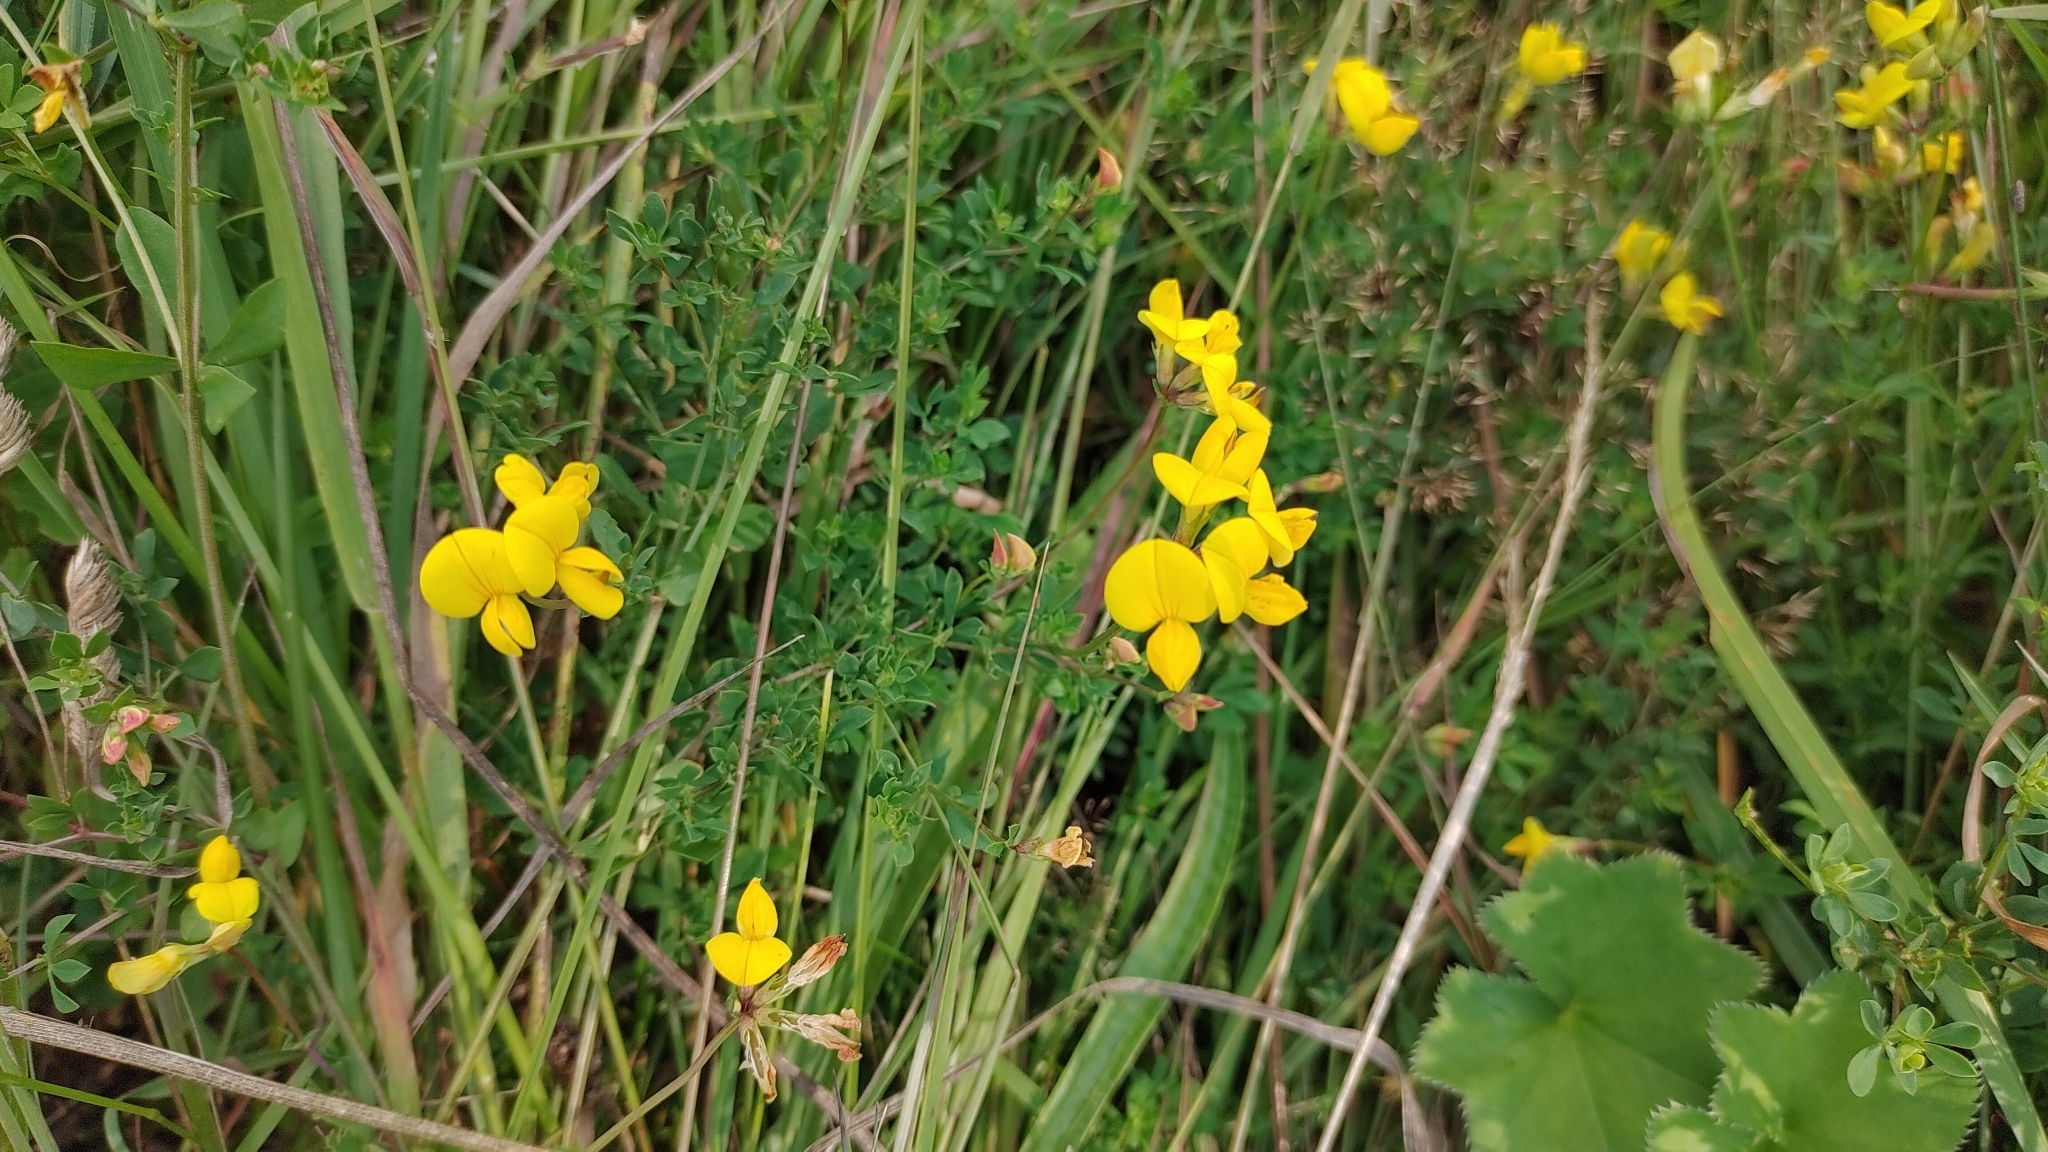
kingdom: Plantae
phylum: Tracheophyta
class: Magnoliopsida
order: Fabales
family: Fabaceae
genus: Lotus
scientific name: Lotus corniculatus
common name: Common bird's-foot-trefoil
